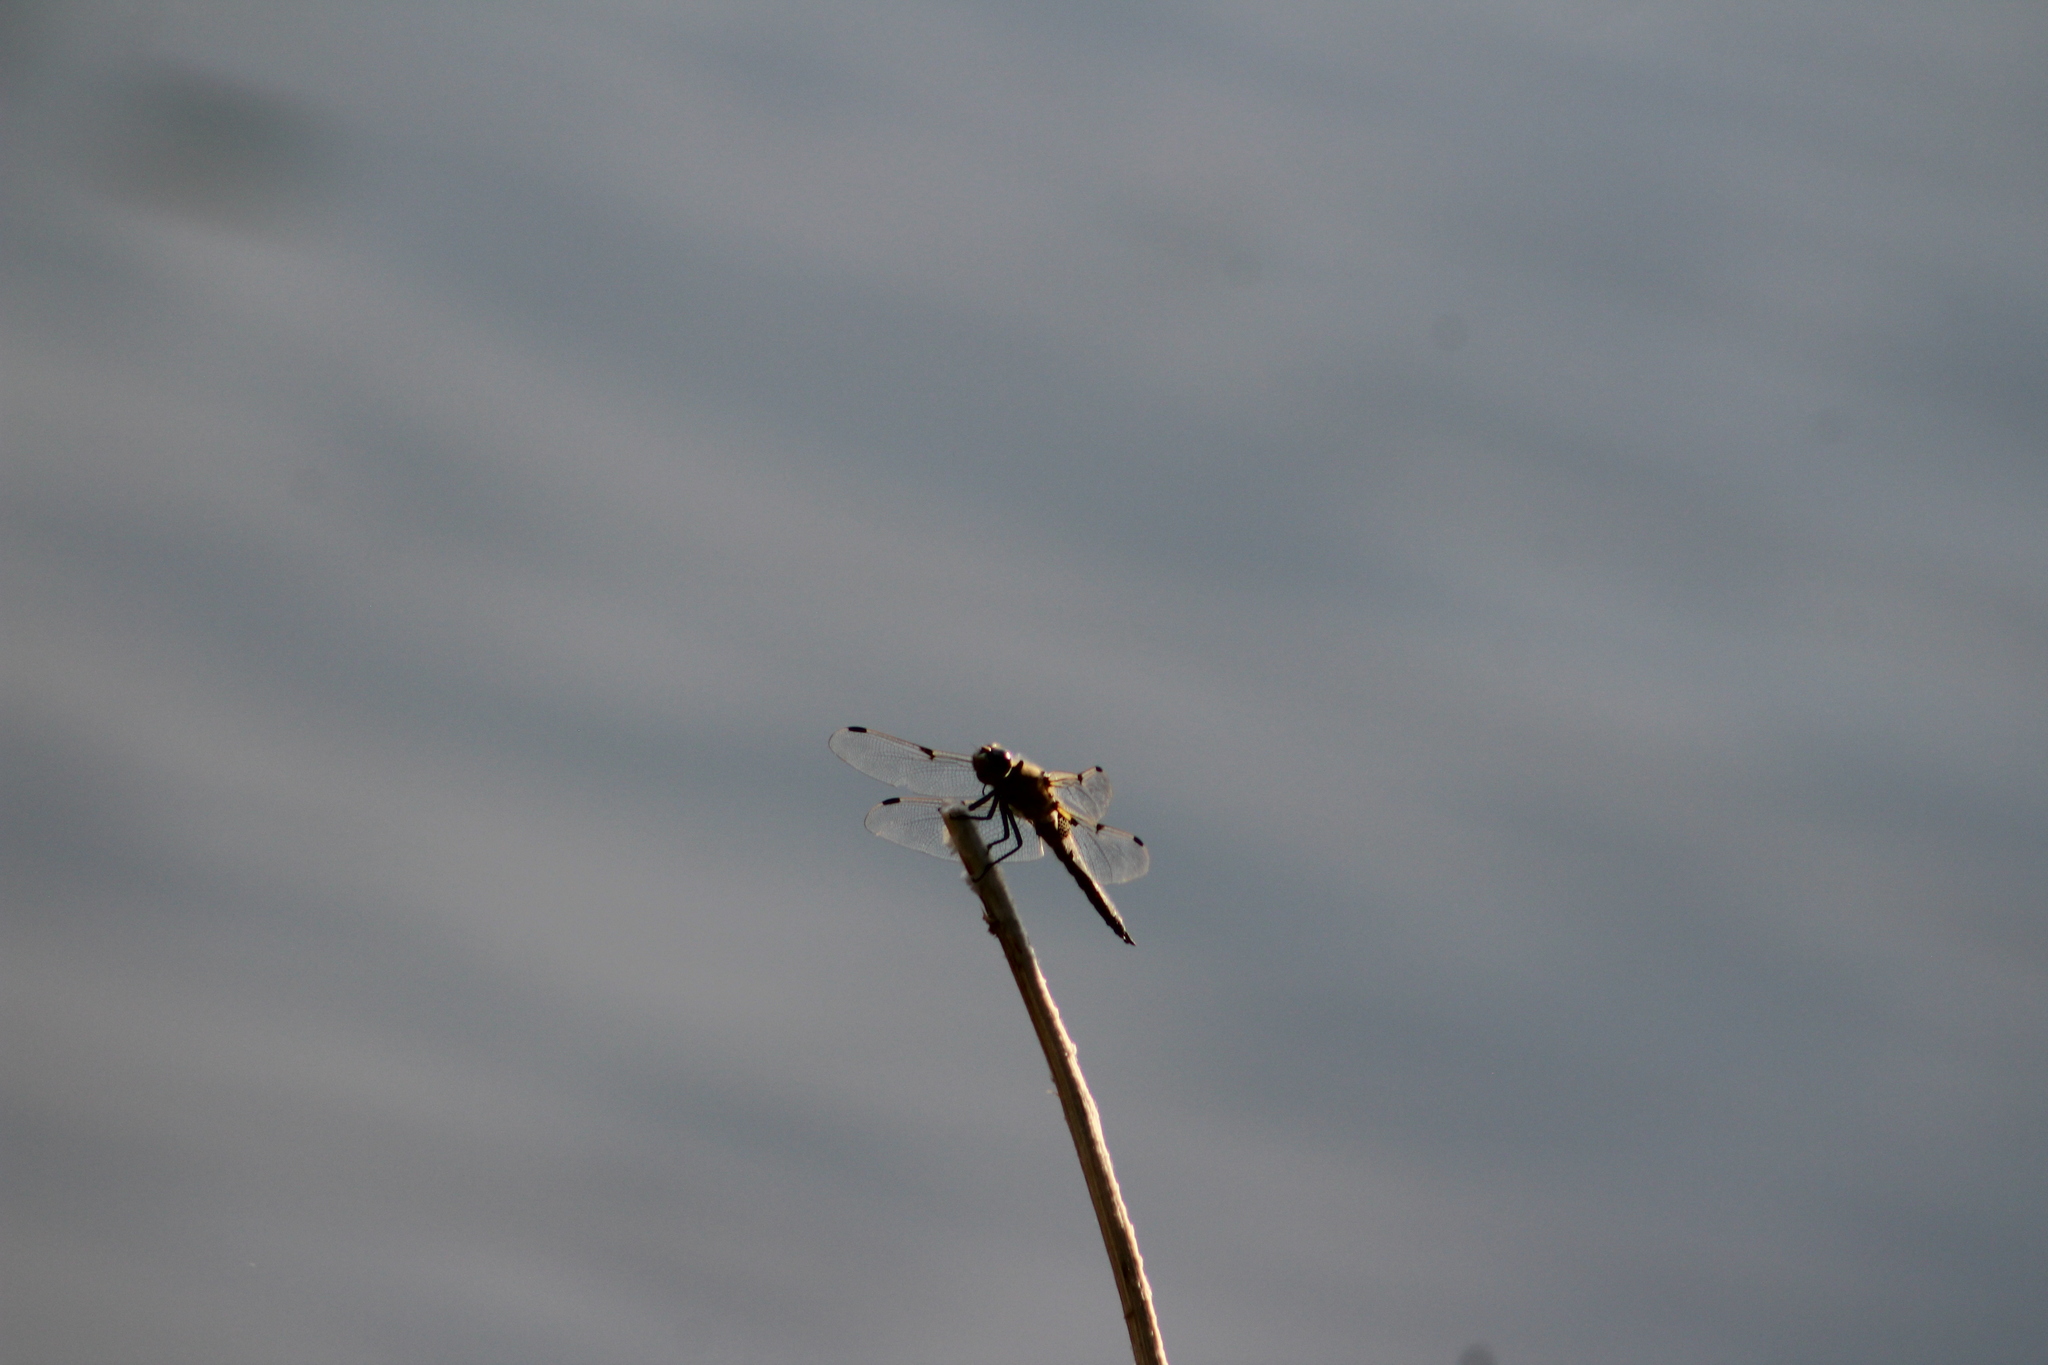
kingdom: Animalia
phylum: Arthropoda
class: Insecta
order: Odonata
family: Libellulidae
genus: Libellula
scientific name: Libellula quadrimaculata
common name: Four-spotted chaser
